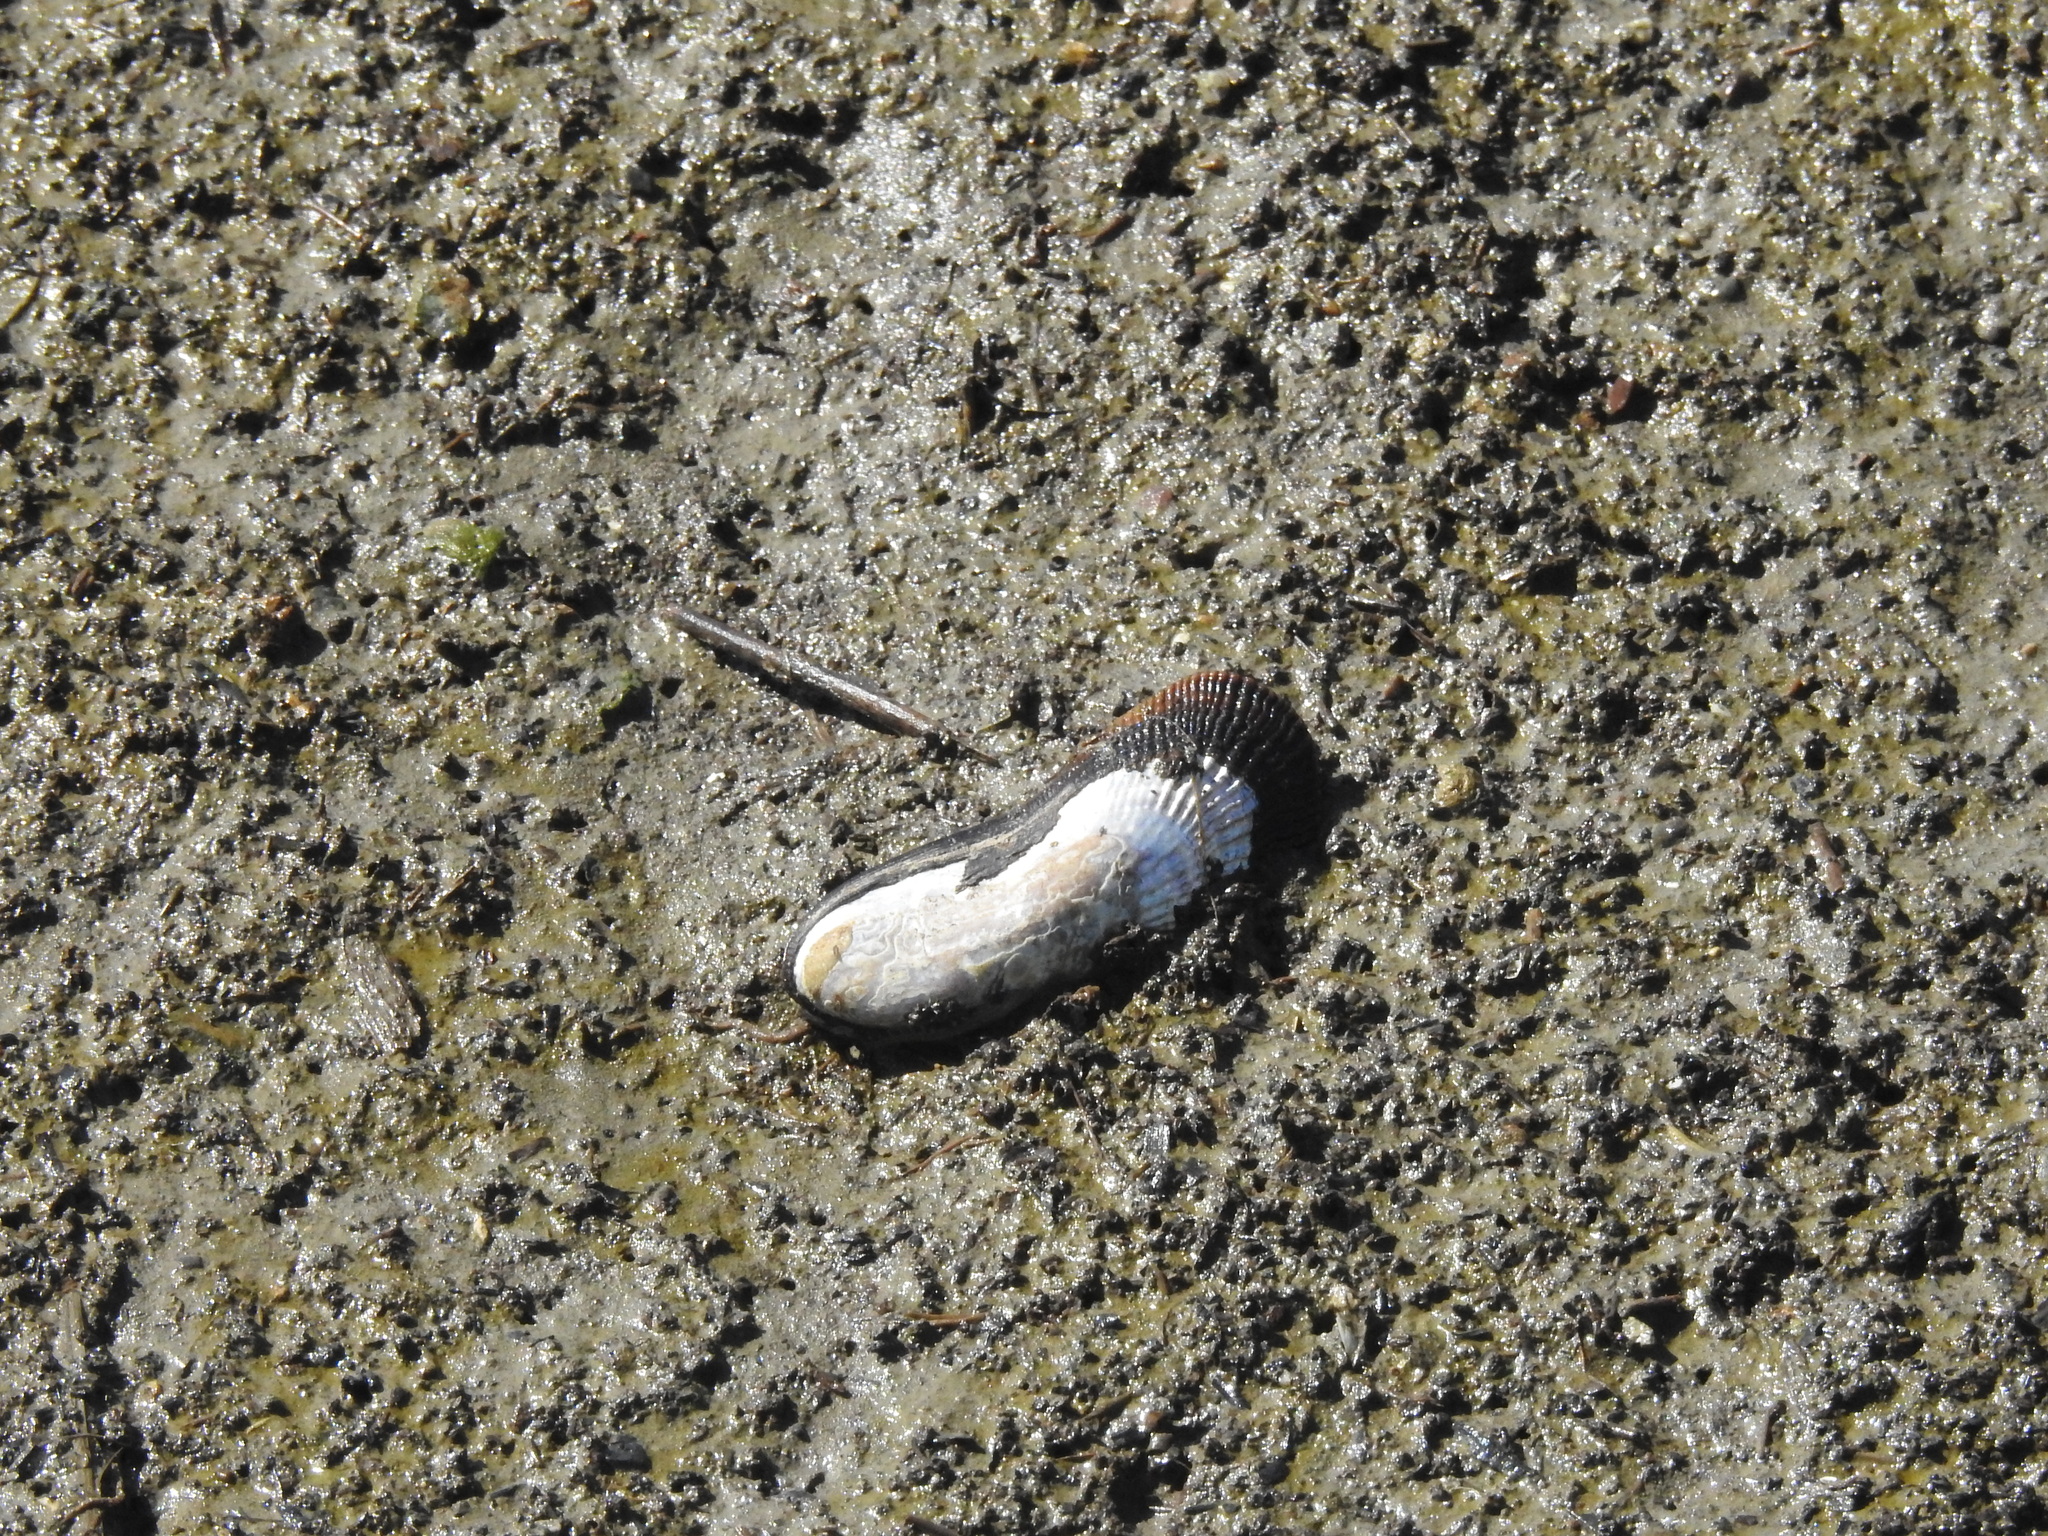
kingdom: Animalia
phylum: Mollusca
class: Bivalvia
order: Mytilida
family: Mytilidae
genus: Geukensia
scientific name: Geukensia demissa
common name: Ribbed mussel
